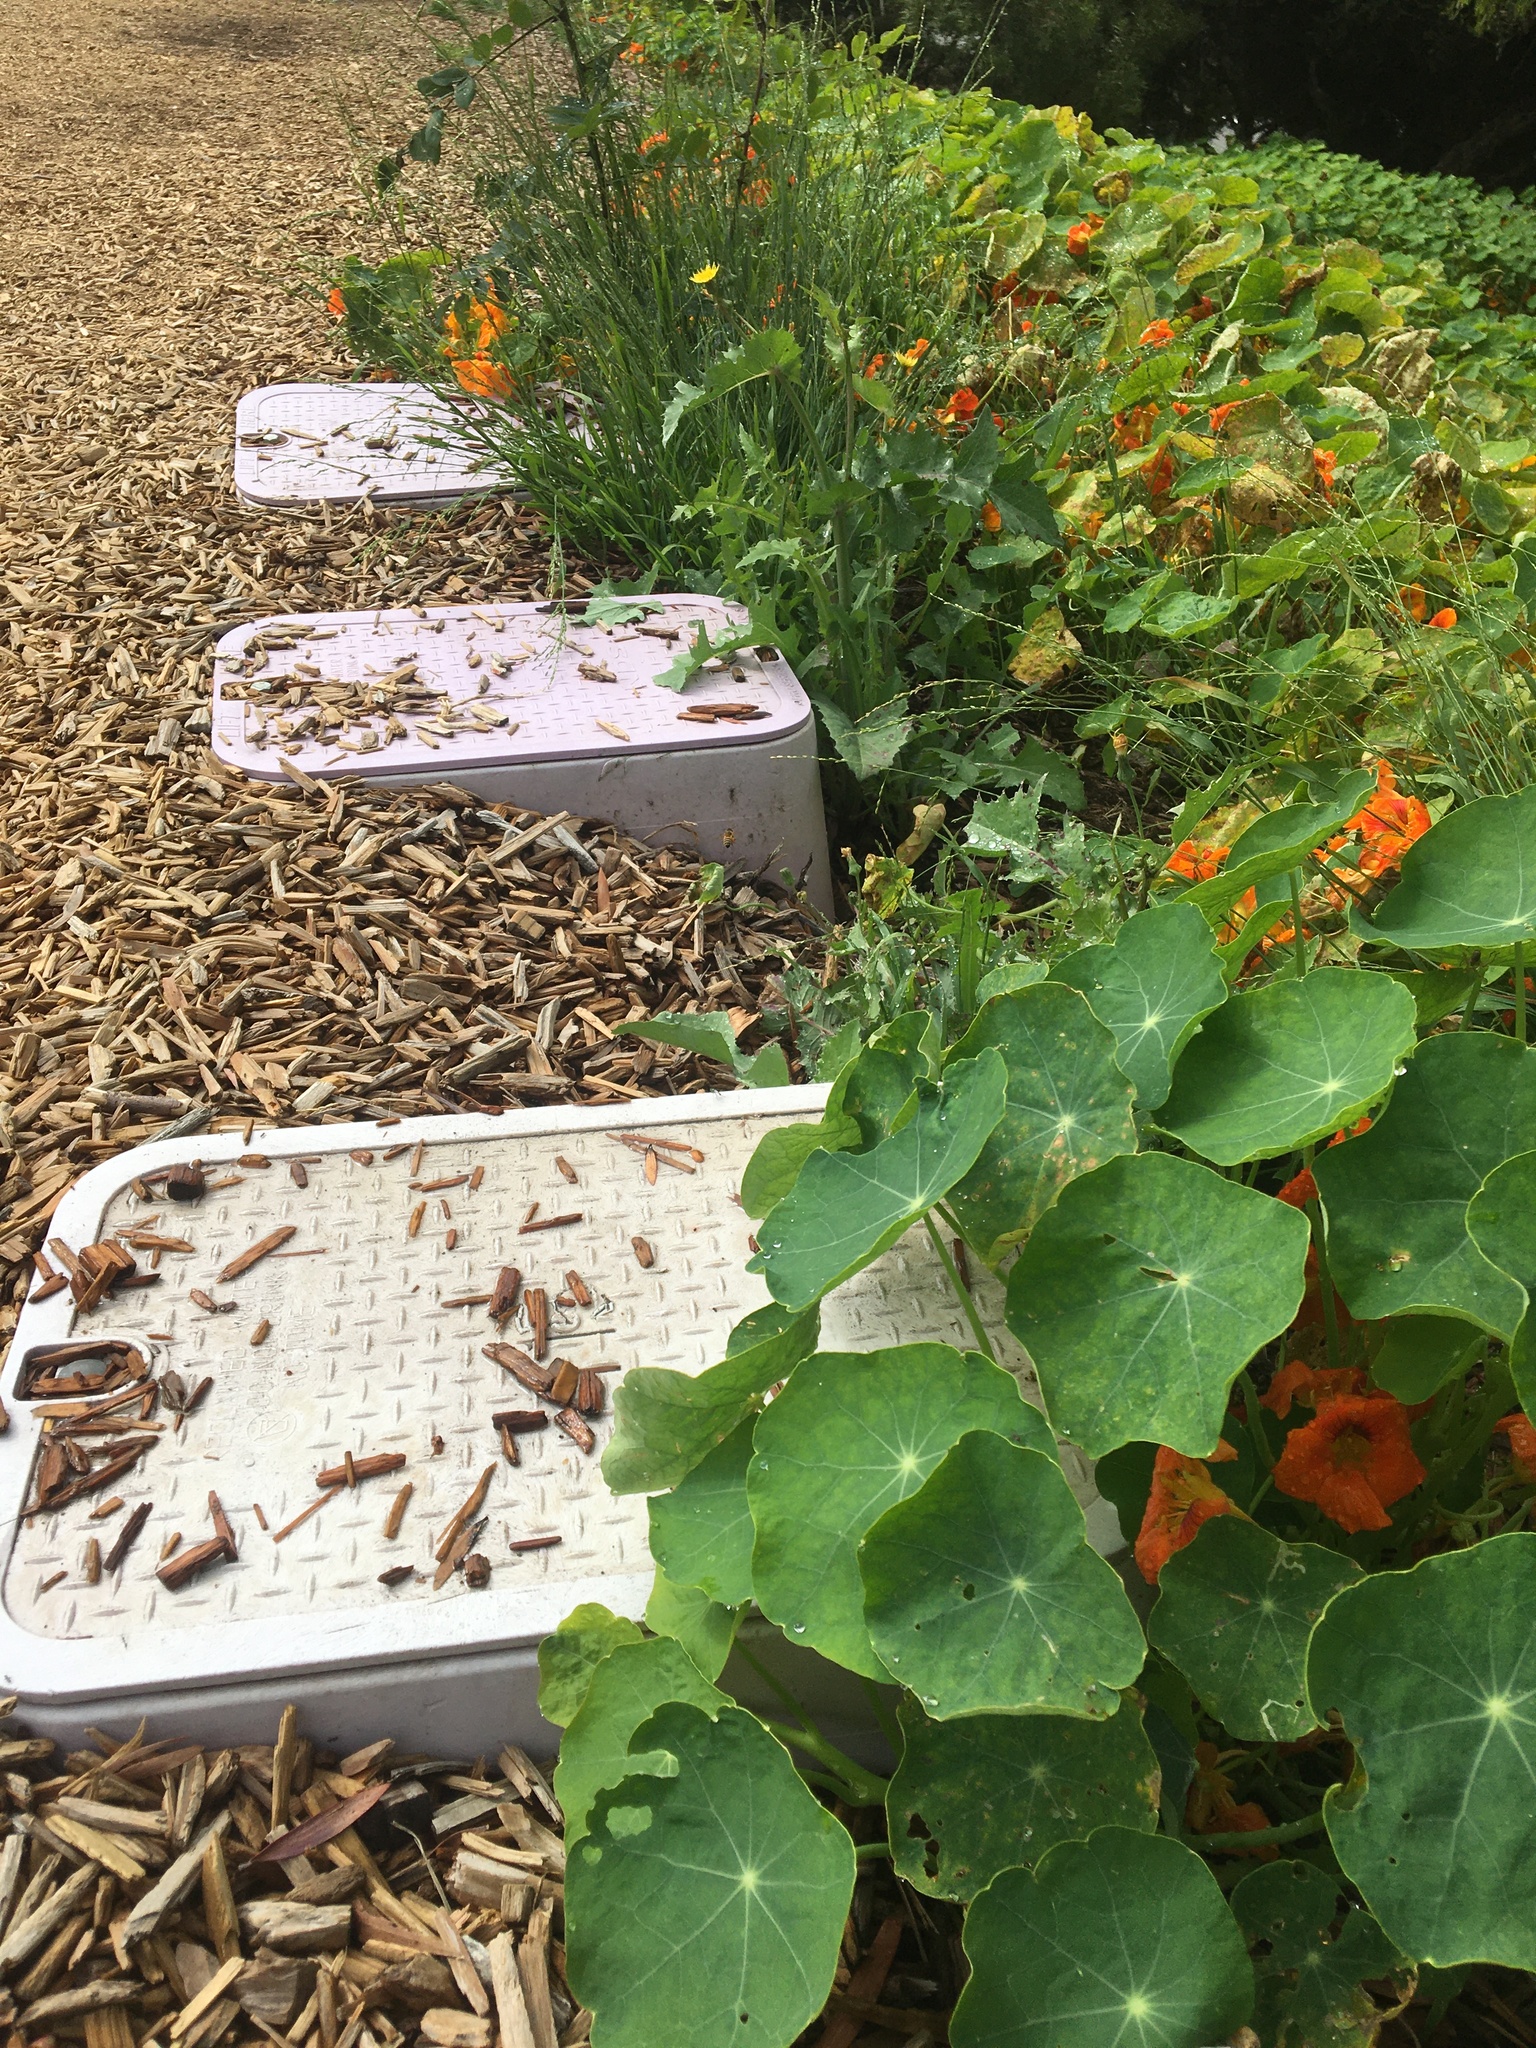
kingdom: Animalia
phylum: Arthropoda
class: Insecta
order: Hymenoptera
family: Apidae
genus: Apis
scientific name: Apis mellifera
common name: Honey bee
